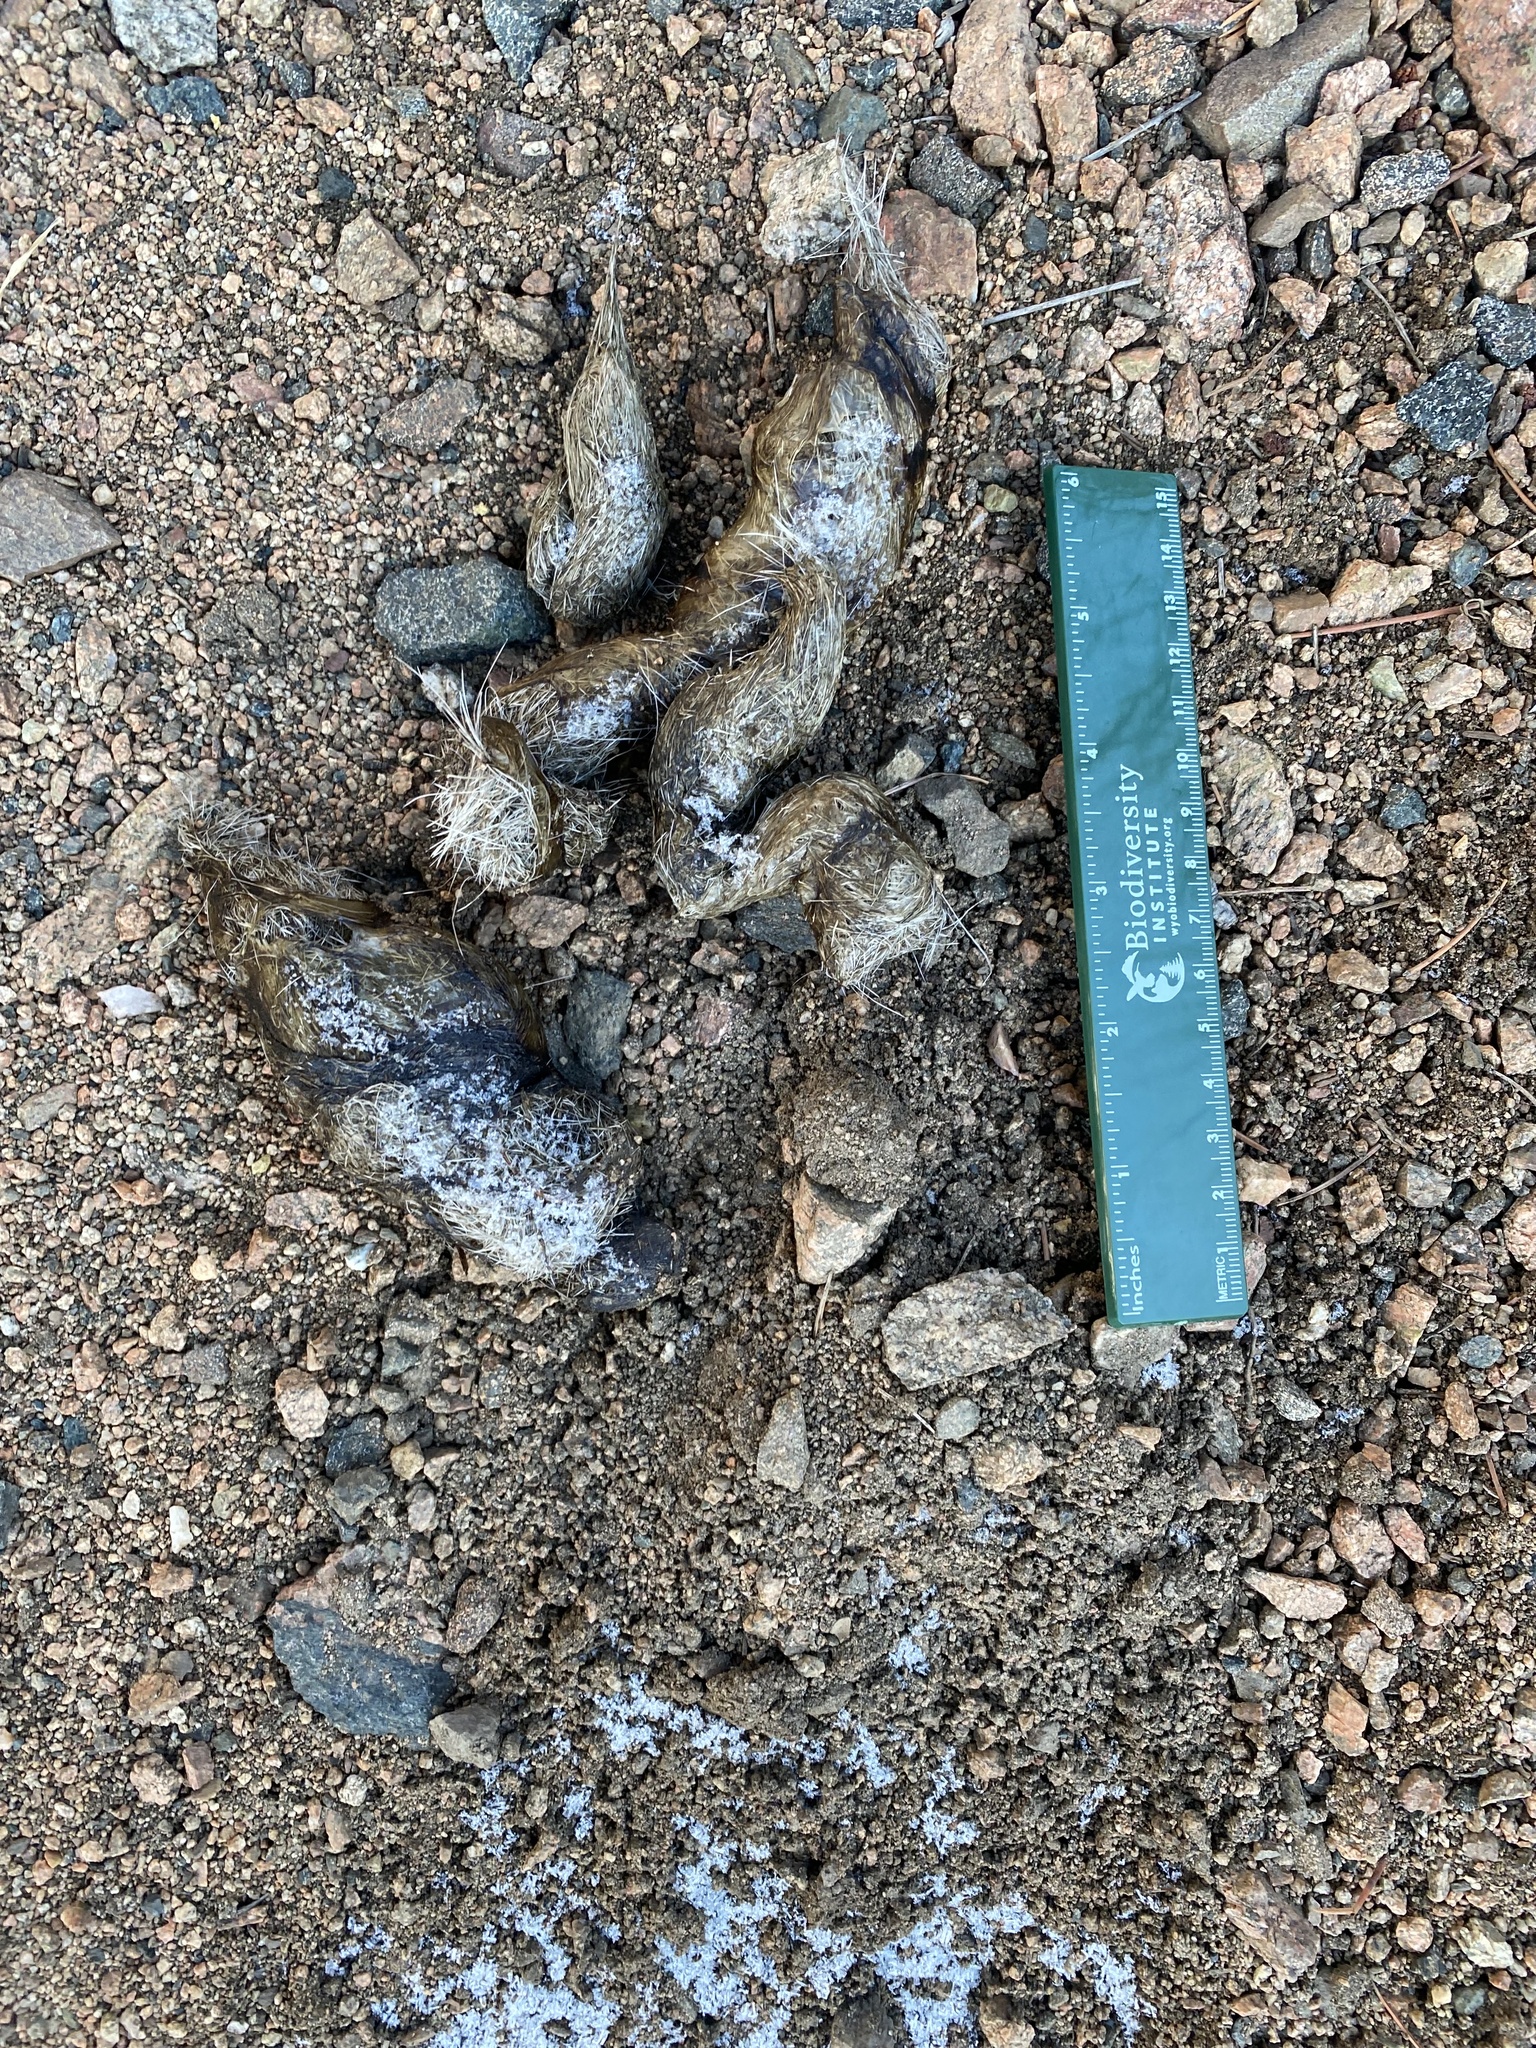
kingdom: Animalia
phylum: Chordata
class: Mammalia
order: Carnivora
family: Felidae
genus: Puma
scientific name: Puma concolor
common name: Puma
